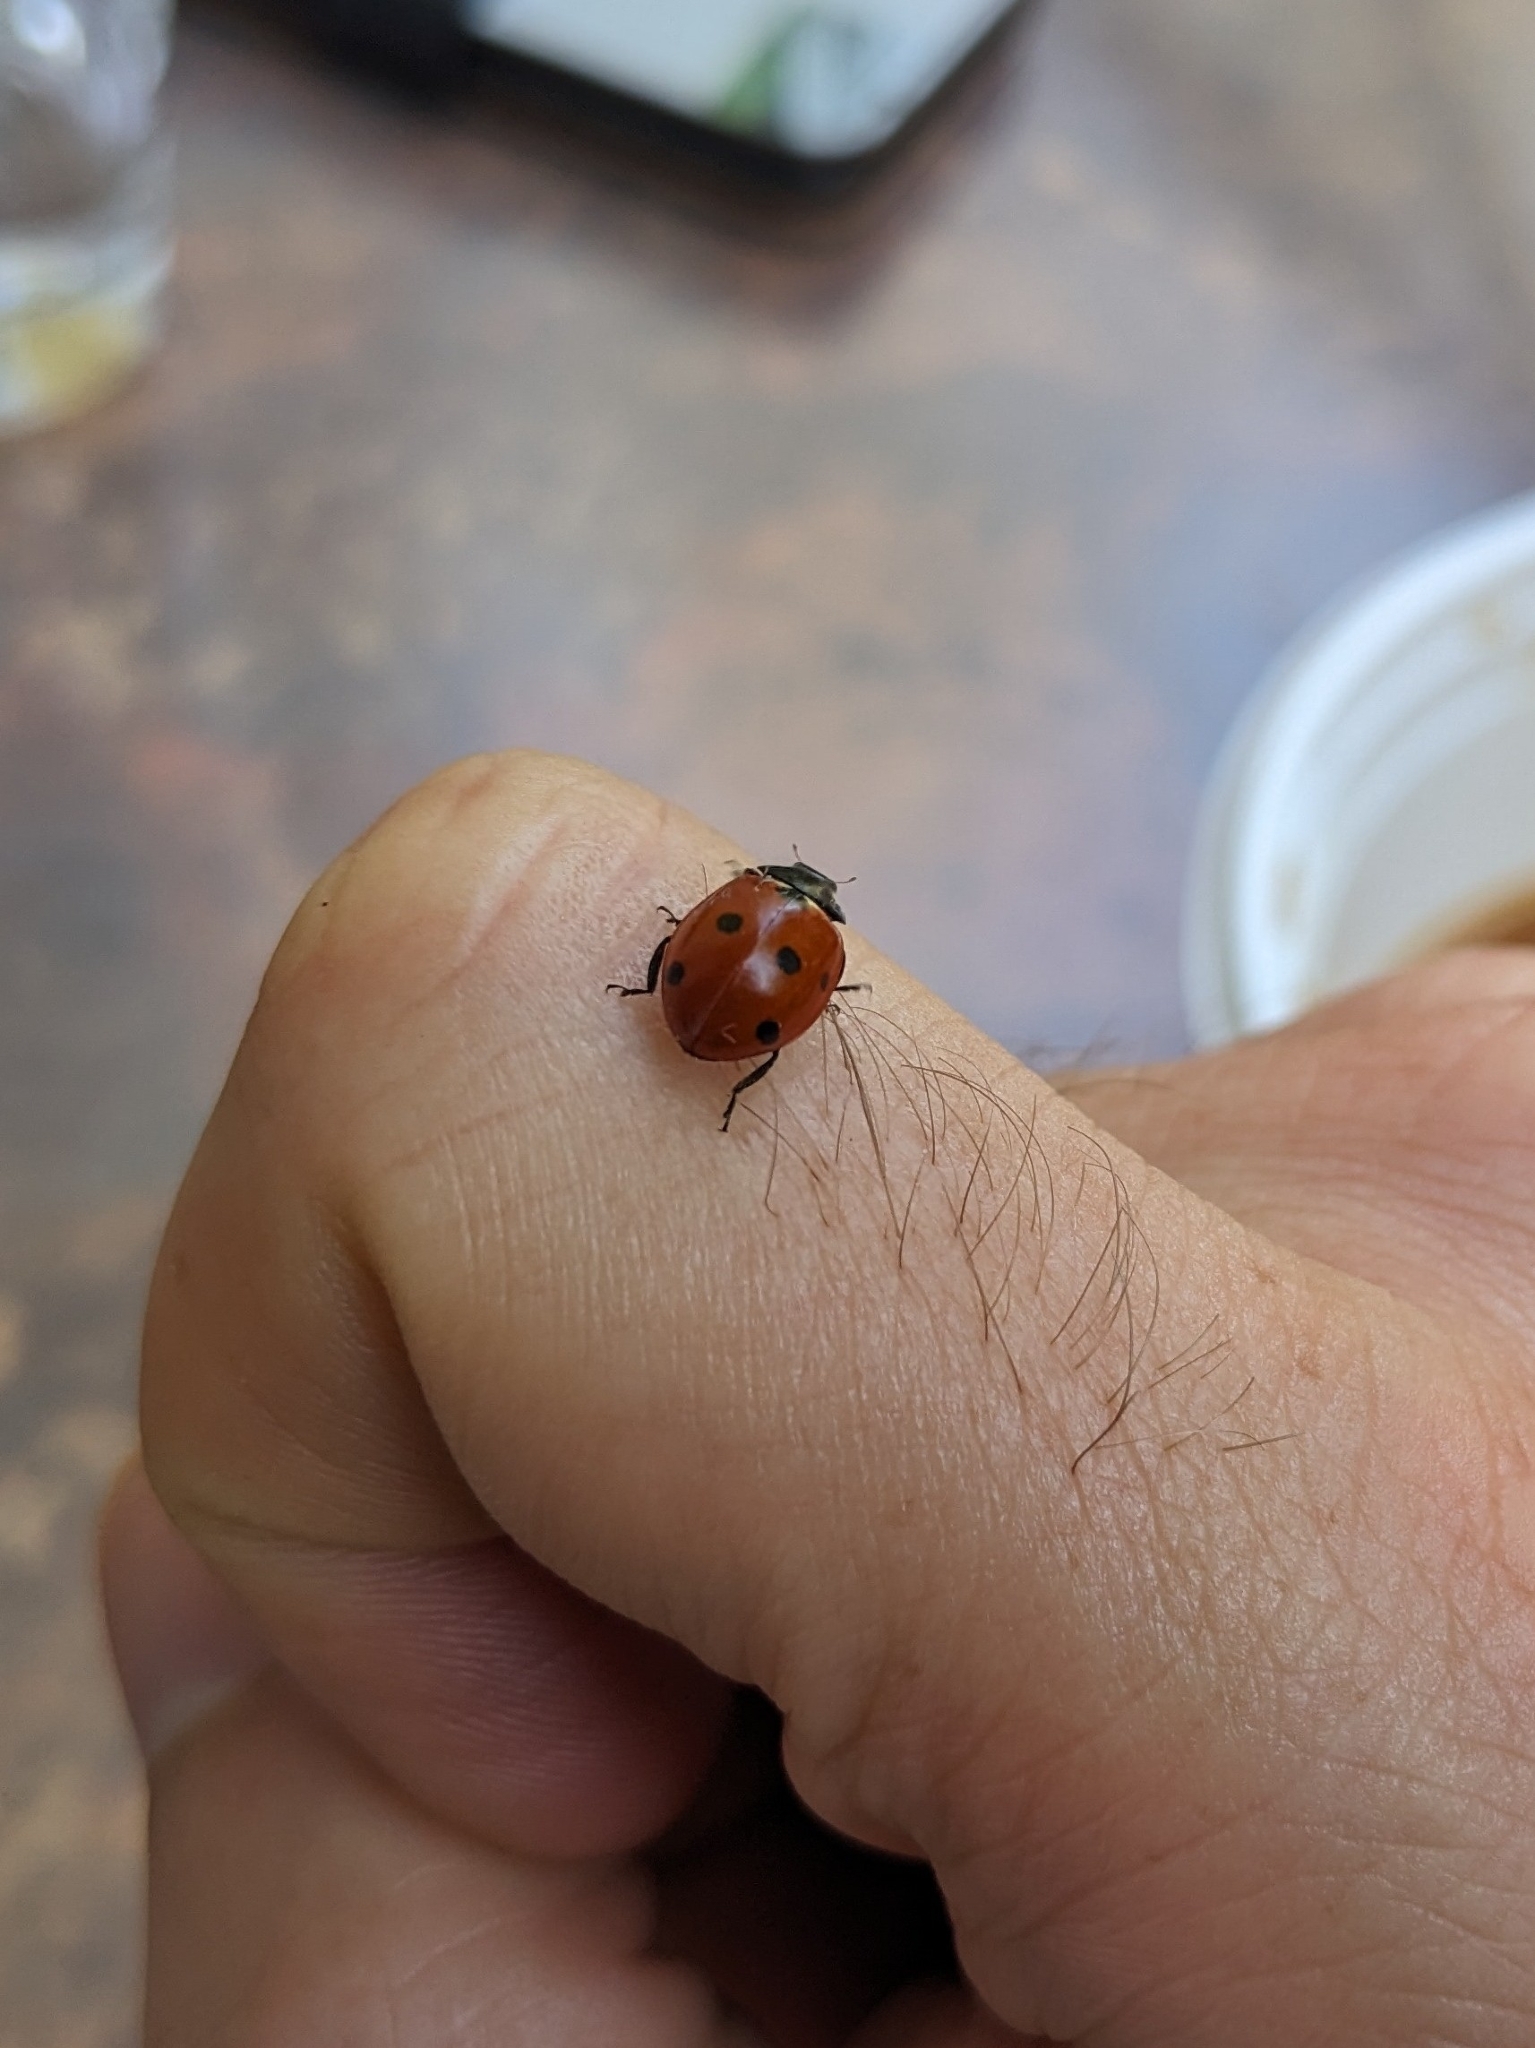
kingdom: Animalia
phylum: Arthropoda
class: Insecta
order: Coleoptera
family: Coccinellidae
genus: Coccinella
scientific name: Coccinella septempunctata
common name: Sevenspotted lady beetle
